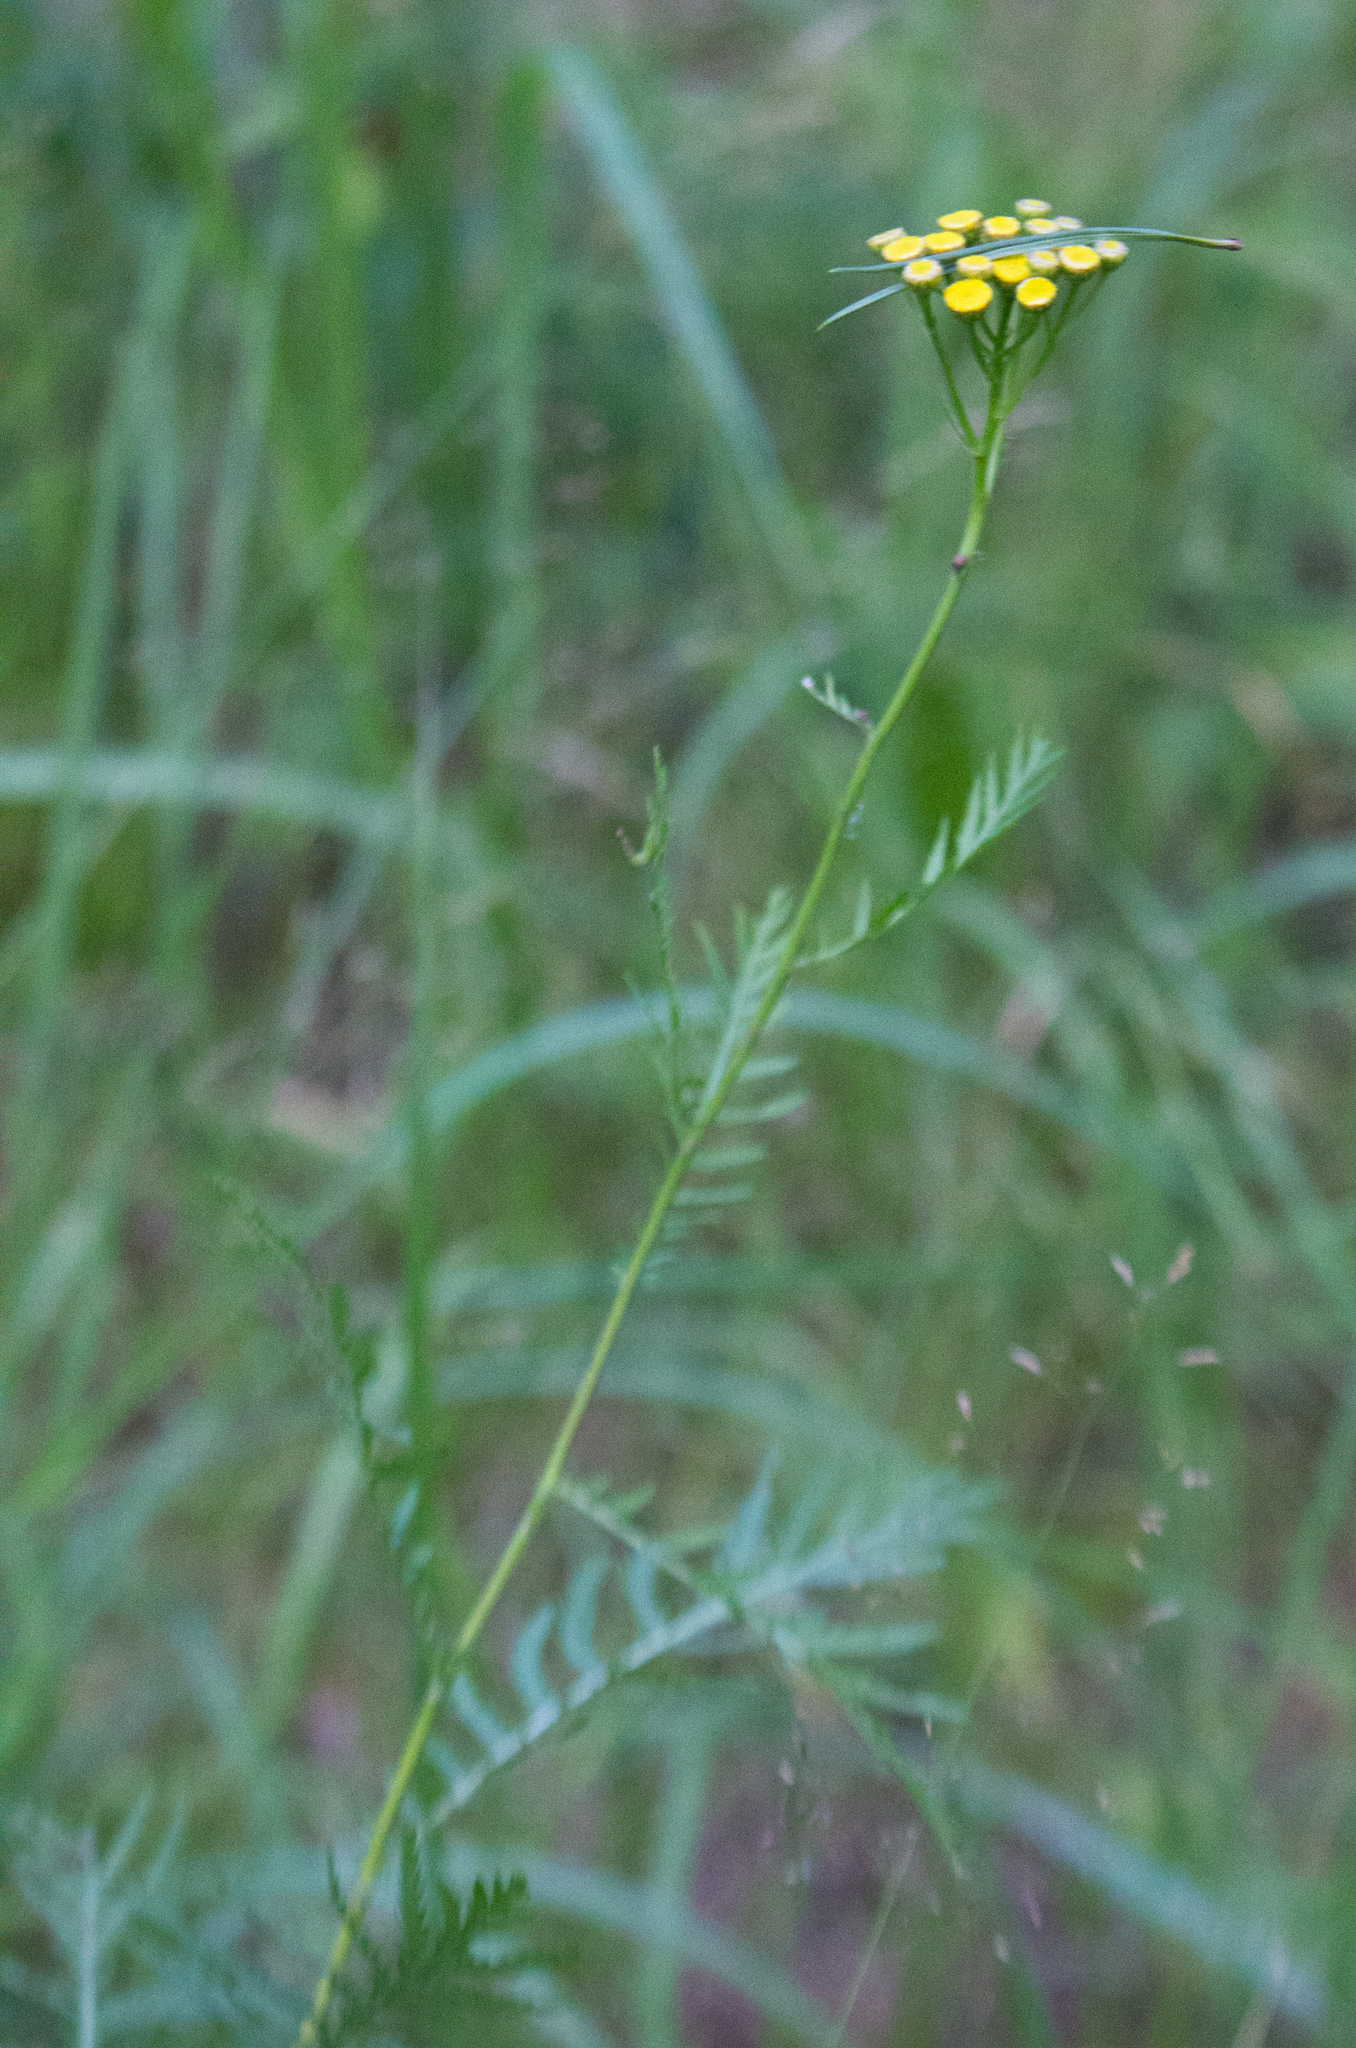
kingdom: Plantae
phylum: Tracheophyta
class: Magnoliopsida
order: Asterales
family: Asteraceae
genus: Tanacetum
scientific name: Tanacetum vulgare
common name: Common tansy
